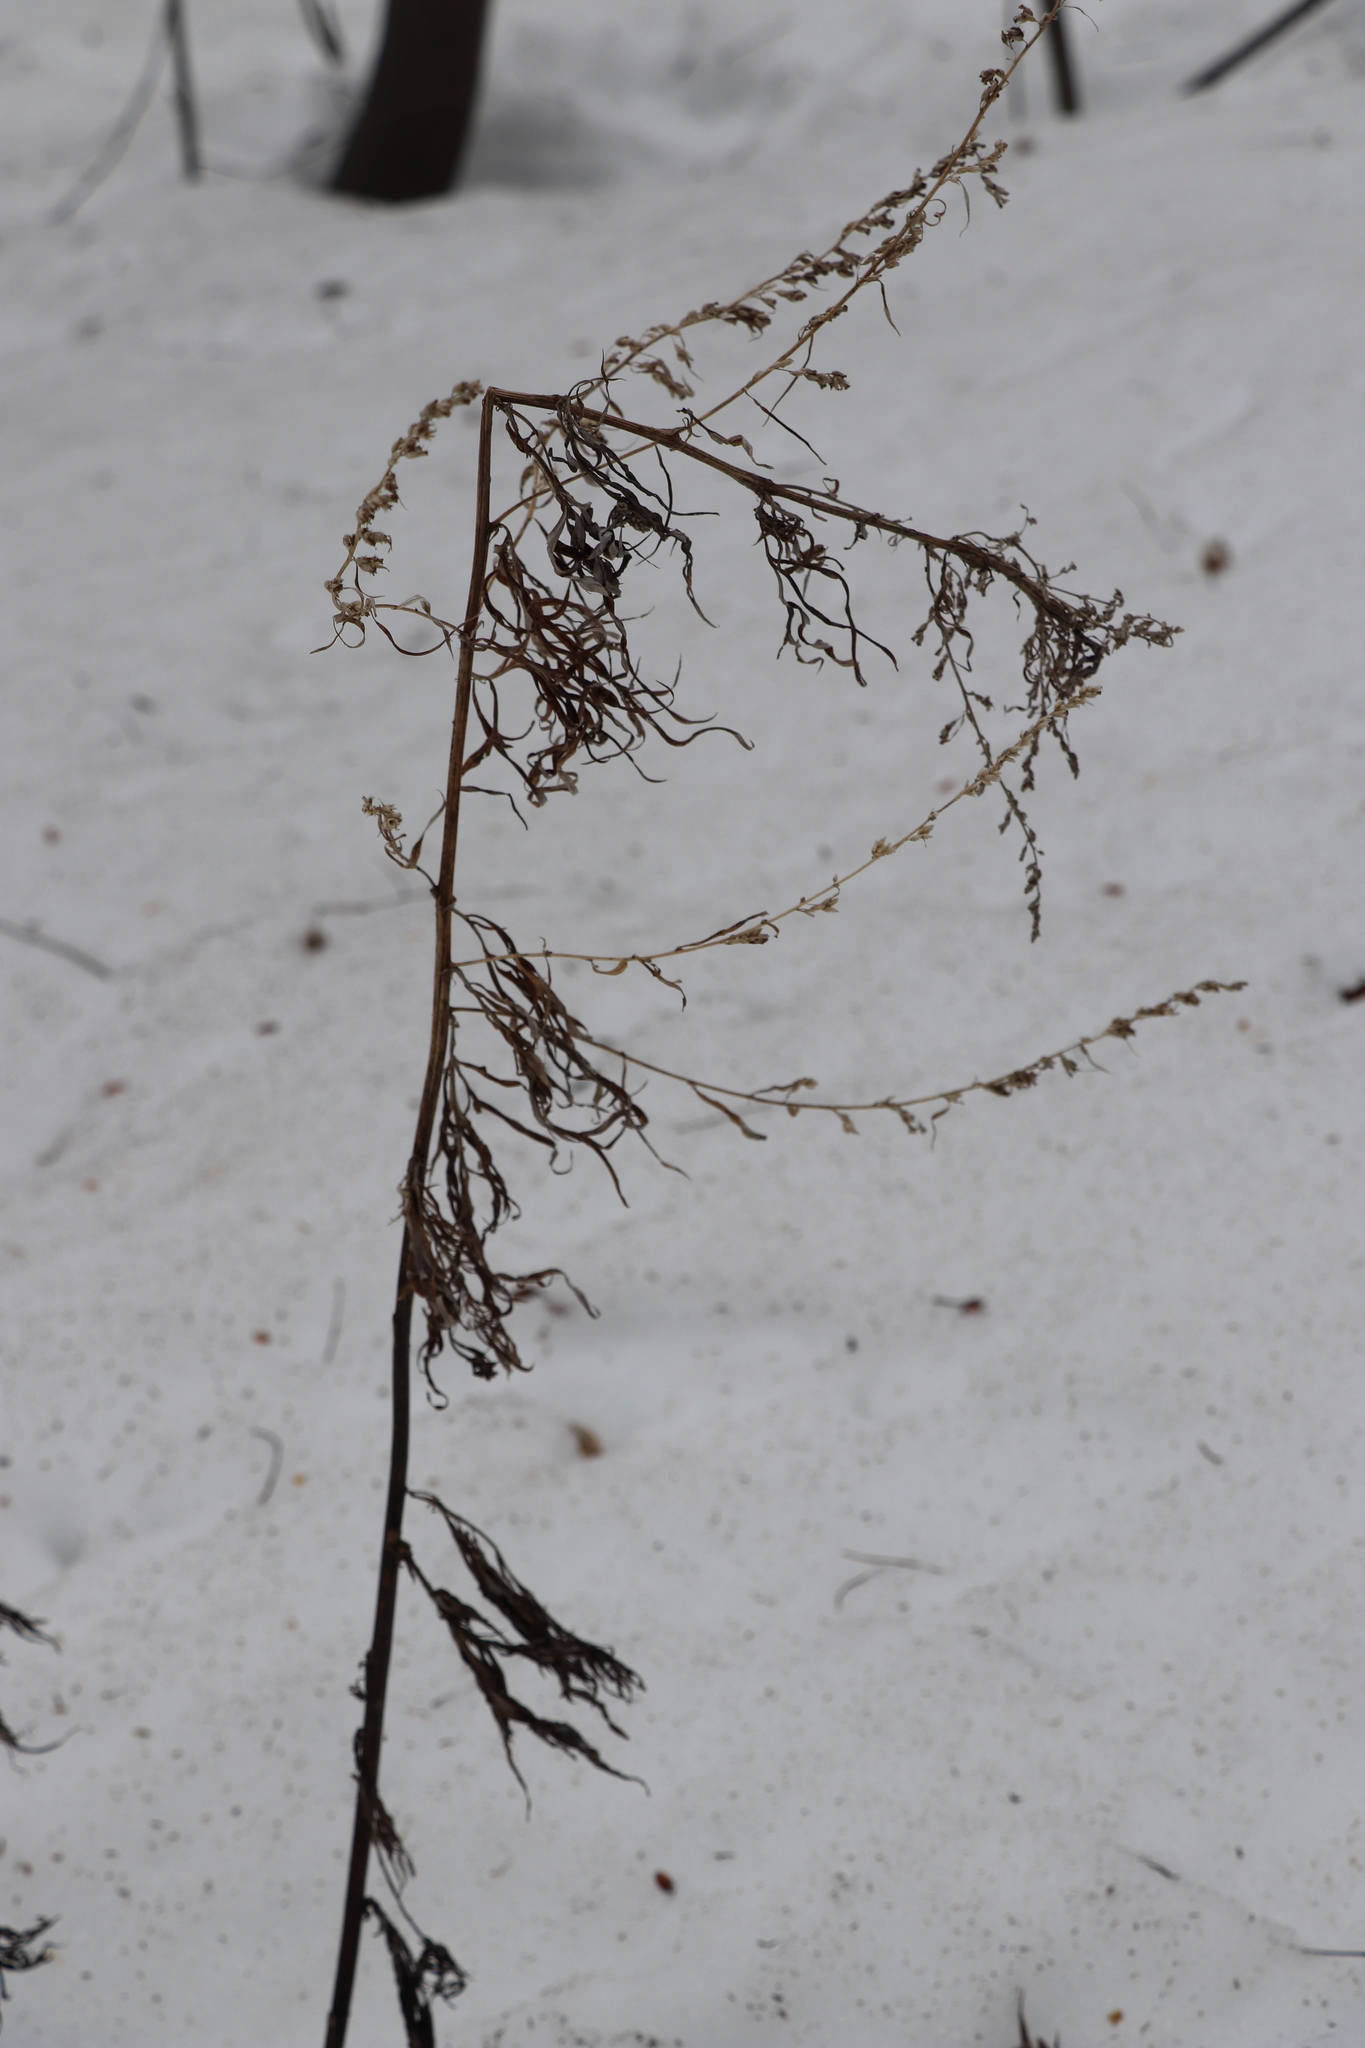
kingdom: Plantae
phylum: Tracheophyta
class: Magnoliopsida
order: Asterales
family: Asteraceae
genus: Artemisia
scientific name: Artemisia vulgaris
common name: Mugwort
